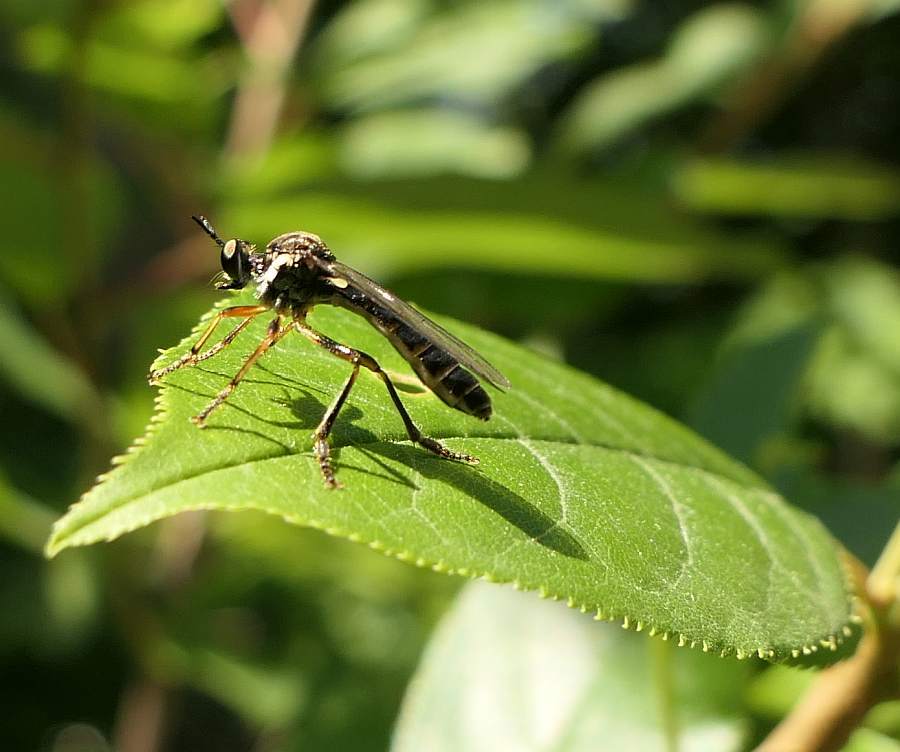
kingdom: Animalia
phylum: Arthropoda
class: Insecta
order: Diptera
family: Asilidae
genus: Dioctria
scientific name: Dioctria hyalipennis
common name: Stripe-legged robberfly
